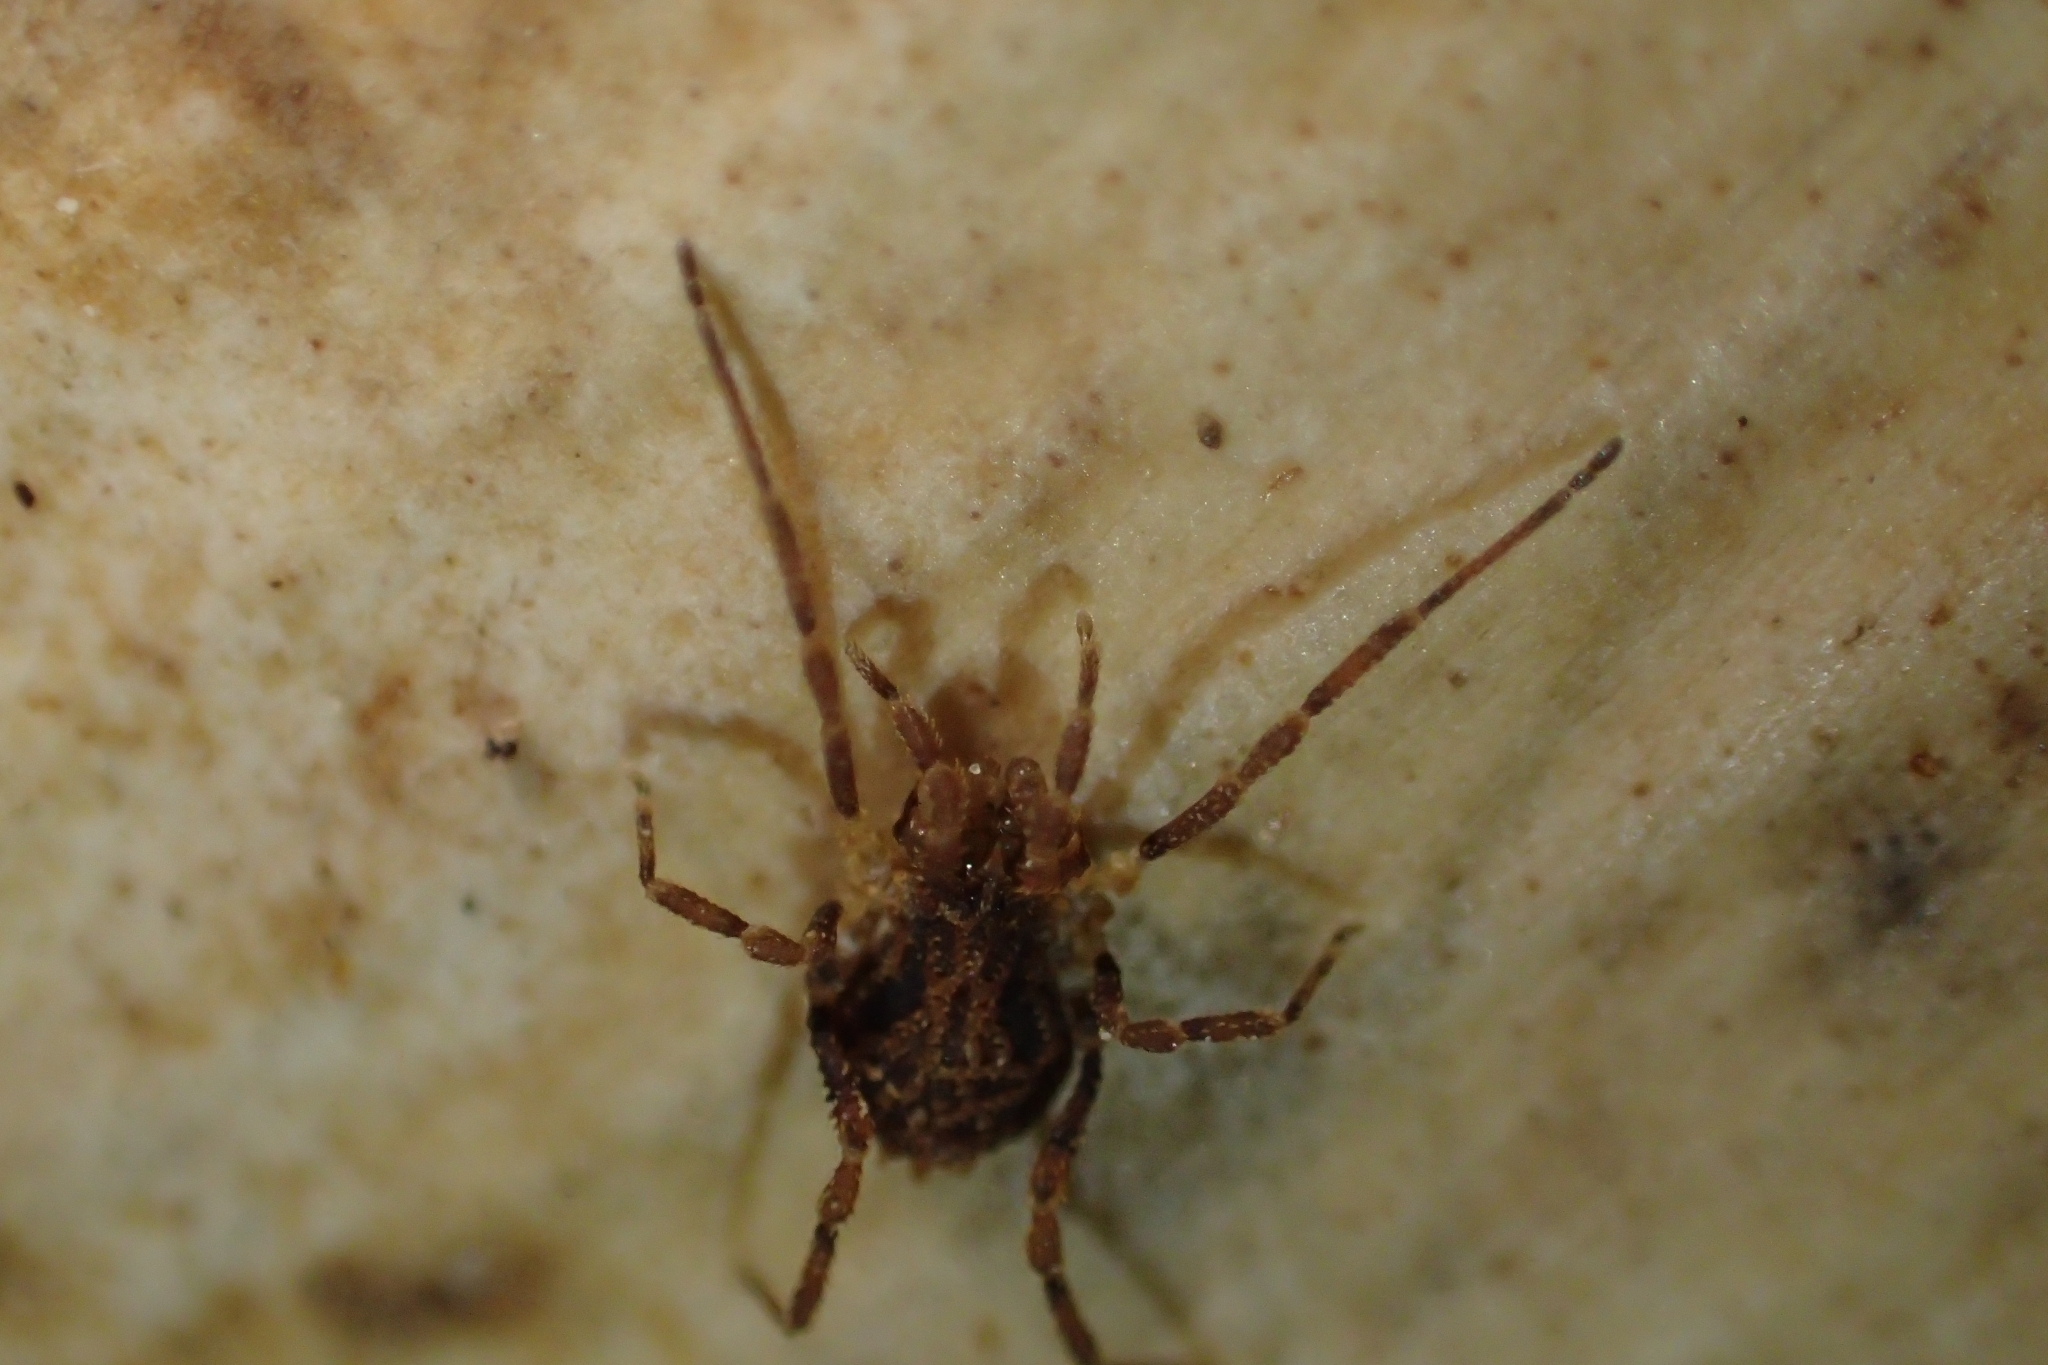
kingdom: Animalia
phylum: Arthropoda
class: Arachnida
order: Opiliones
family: Triaenonychidae
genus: Pristobunus
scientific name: Pristobunus acentrus
